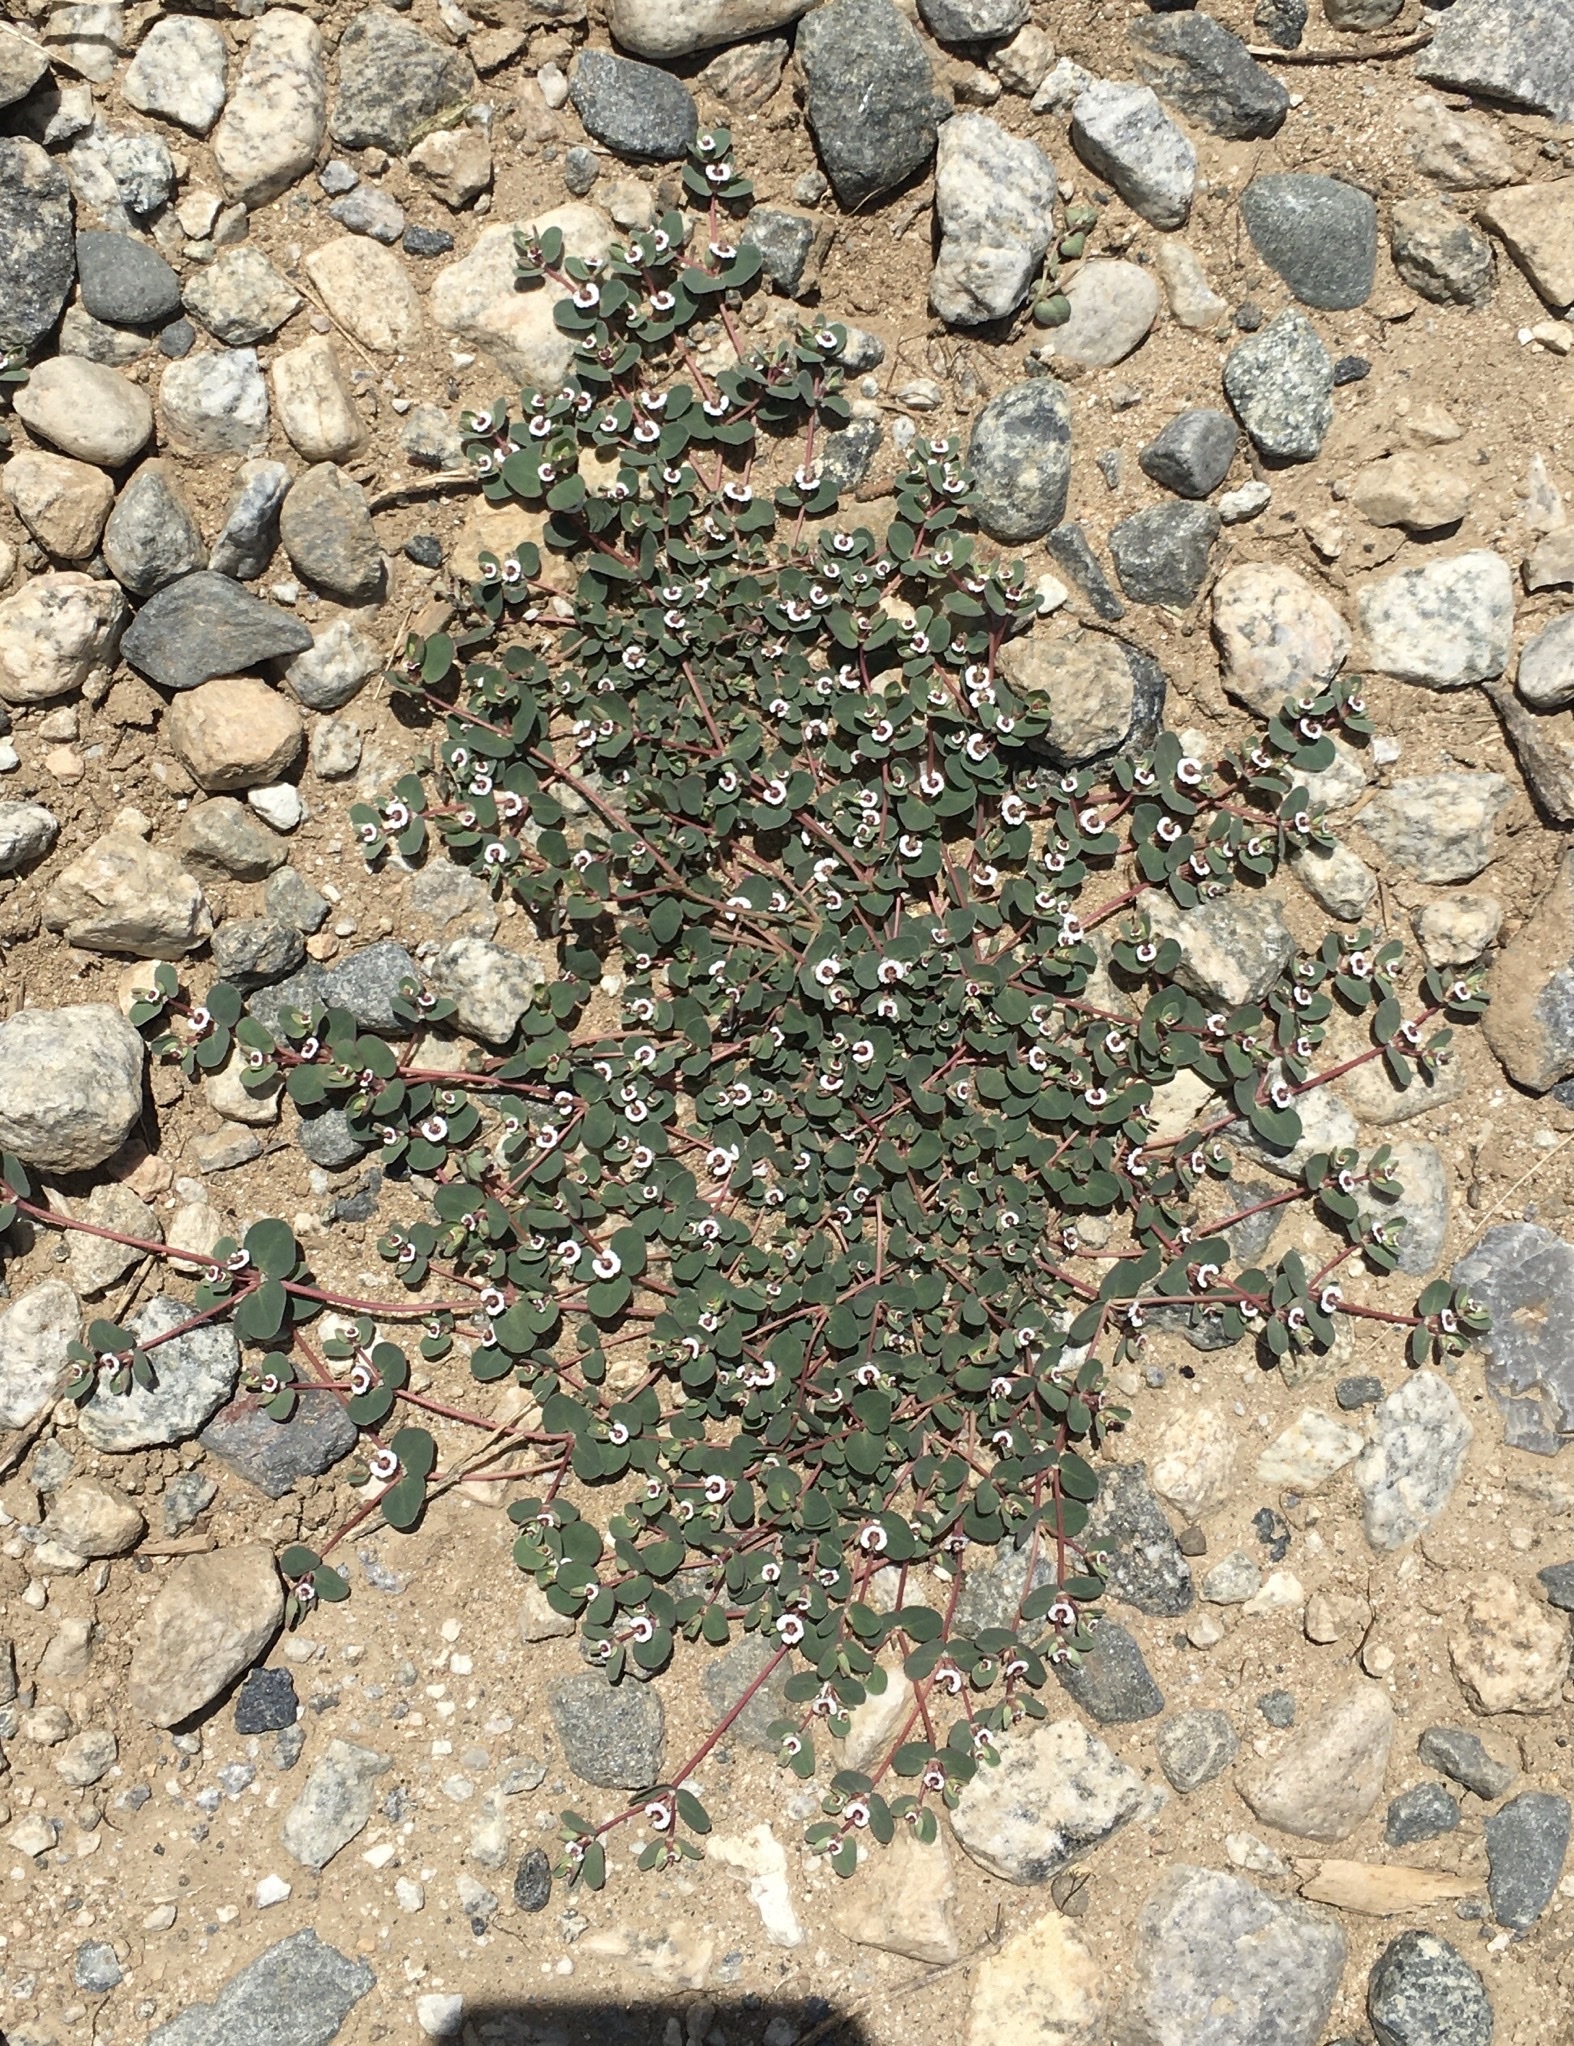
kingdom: Plantae
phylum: Tracheophyta
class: Magnoliopsida
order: Malpighiales
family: Euphorbiaceae
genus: Euphorbia
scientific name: Euphorbia albomarginata
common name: Whitemargin sandmat
